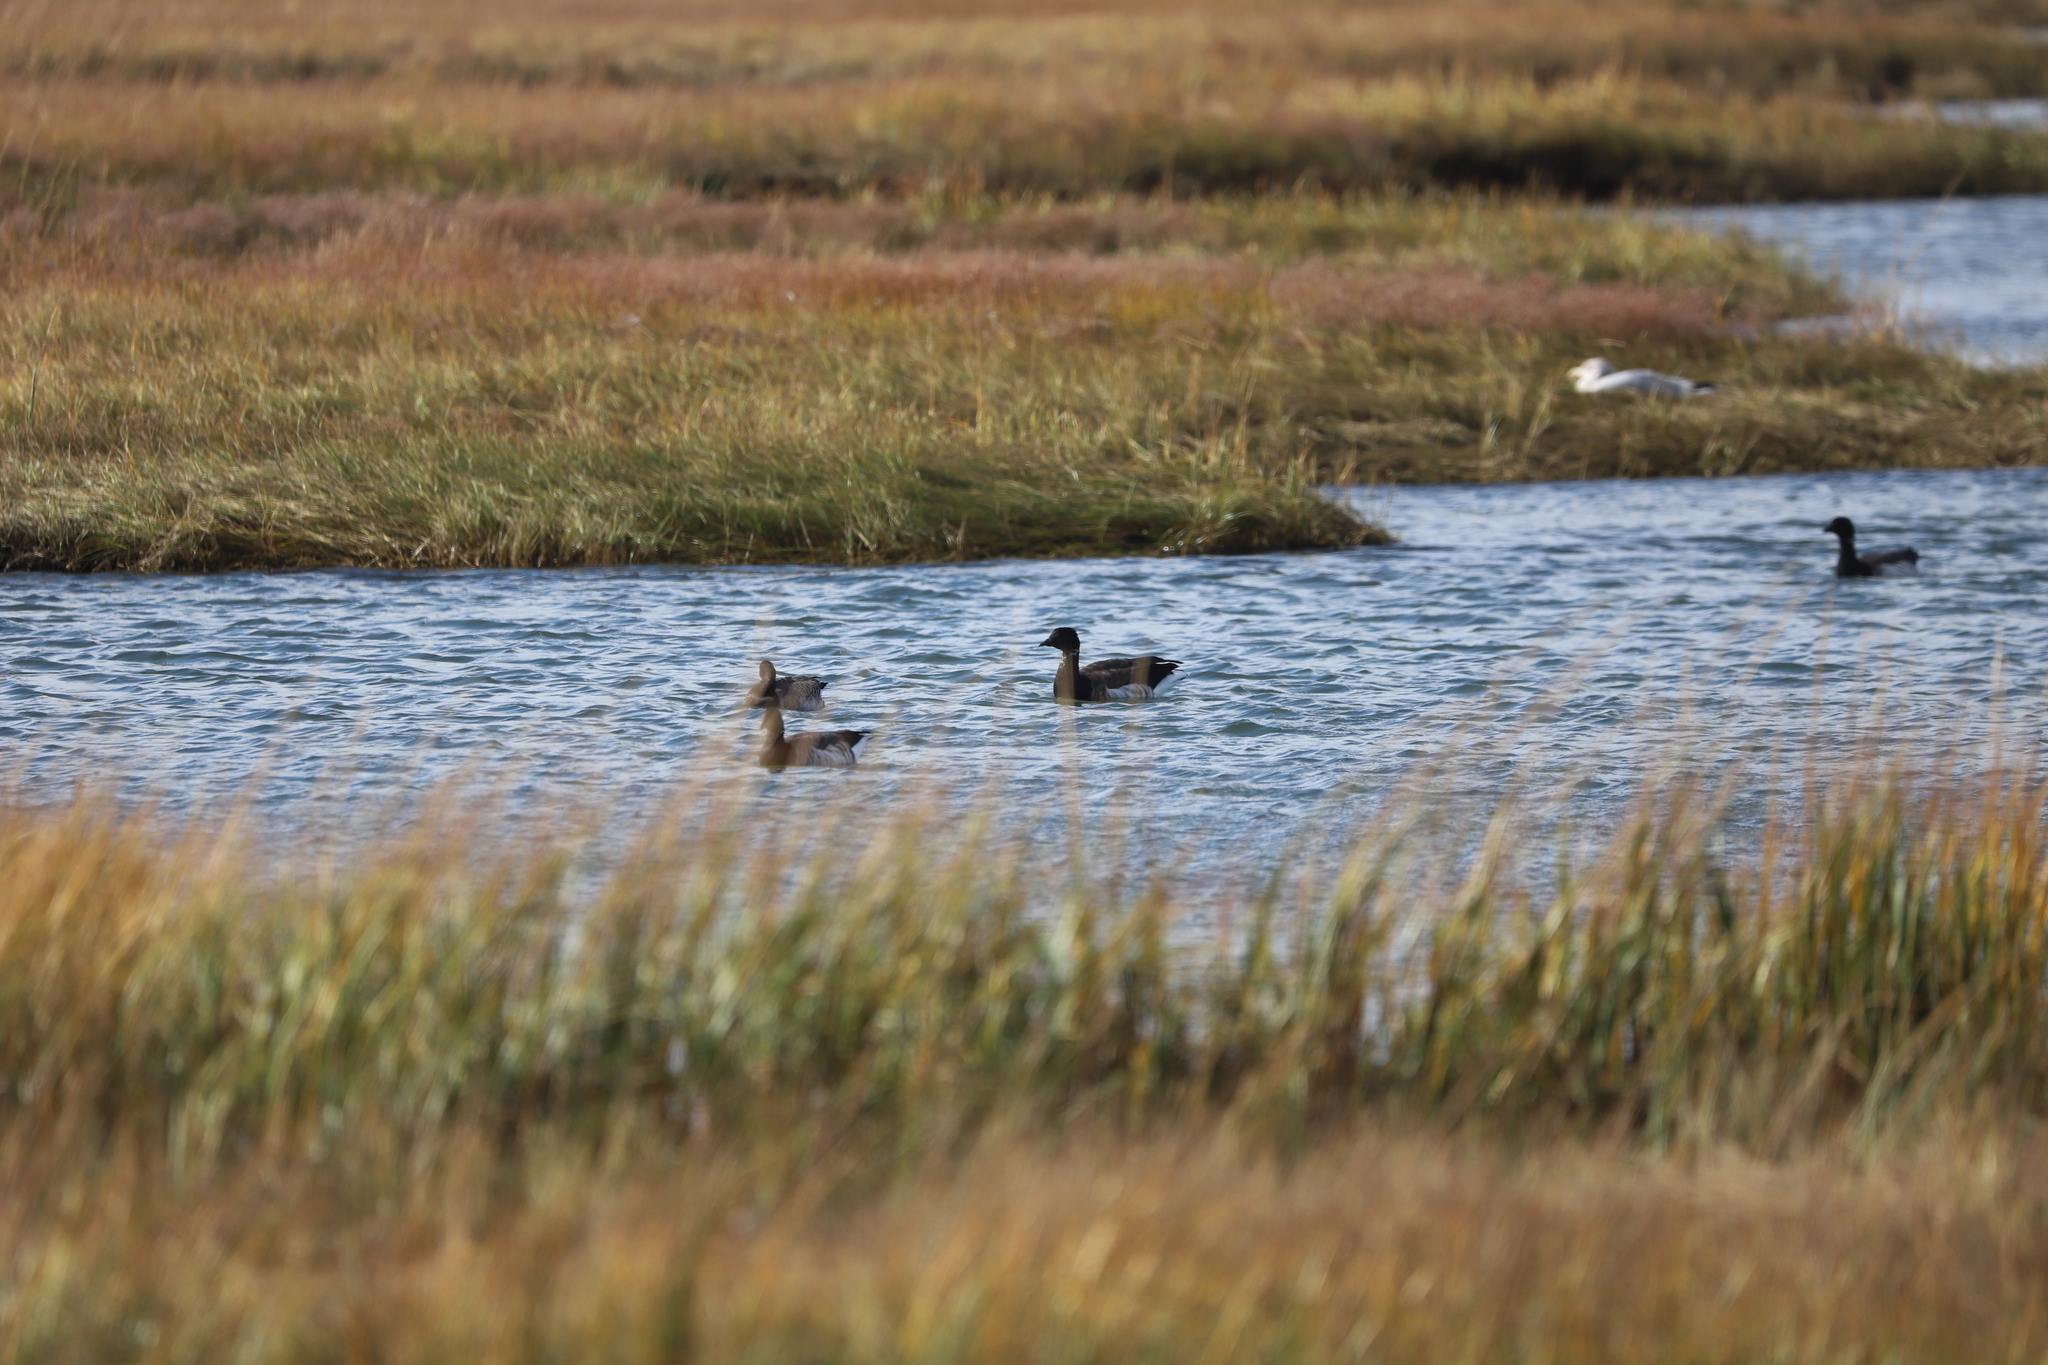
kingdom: Animalia
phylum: Chordata
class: Aves
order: Anseriformes
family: Anatidae
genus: Branta
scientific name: Branta bernicla
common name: Brant goose
